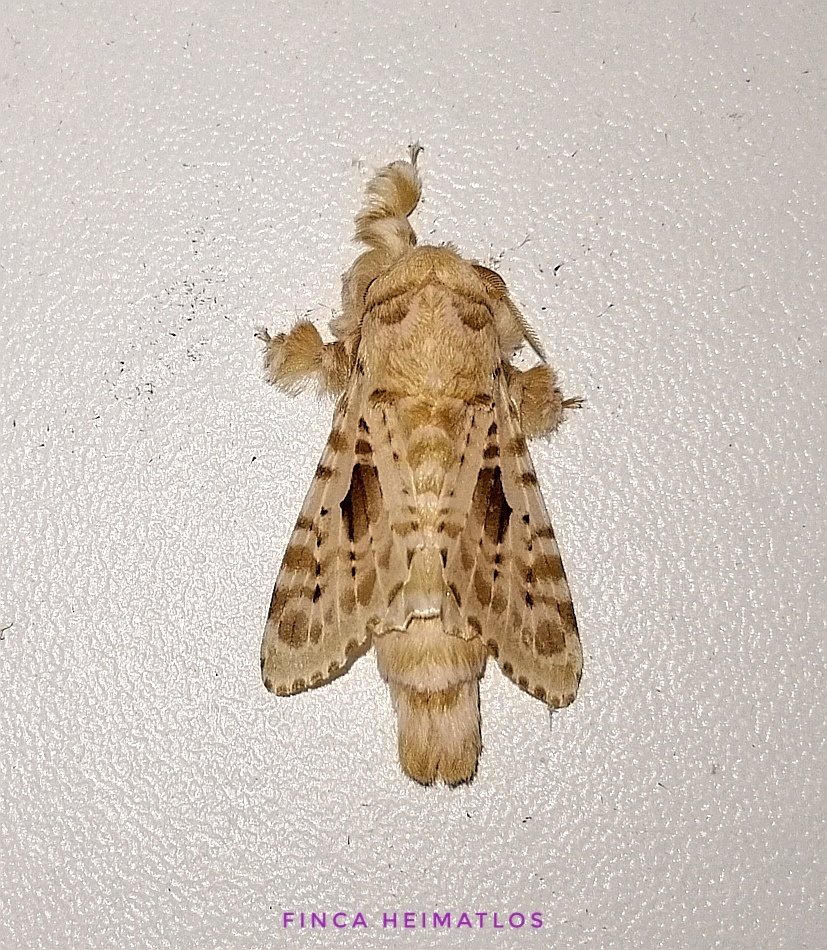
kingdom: Animalia
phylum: Arthropoda
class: Insecta
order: Lepidoptera
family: Lasiocampidae
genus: Titya
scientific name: Titya synoecura
